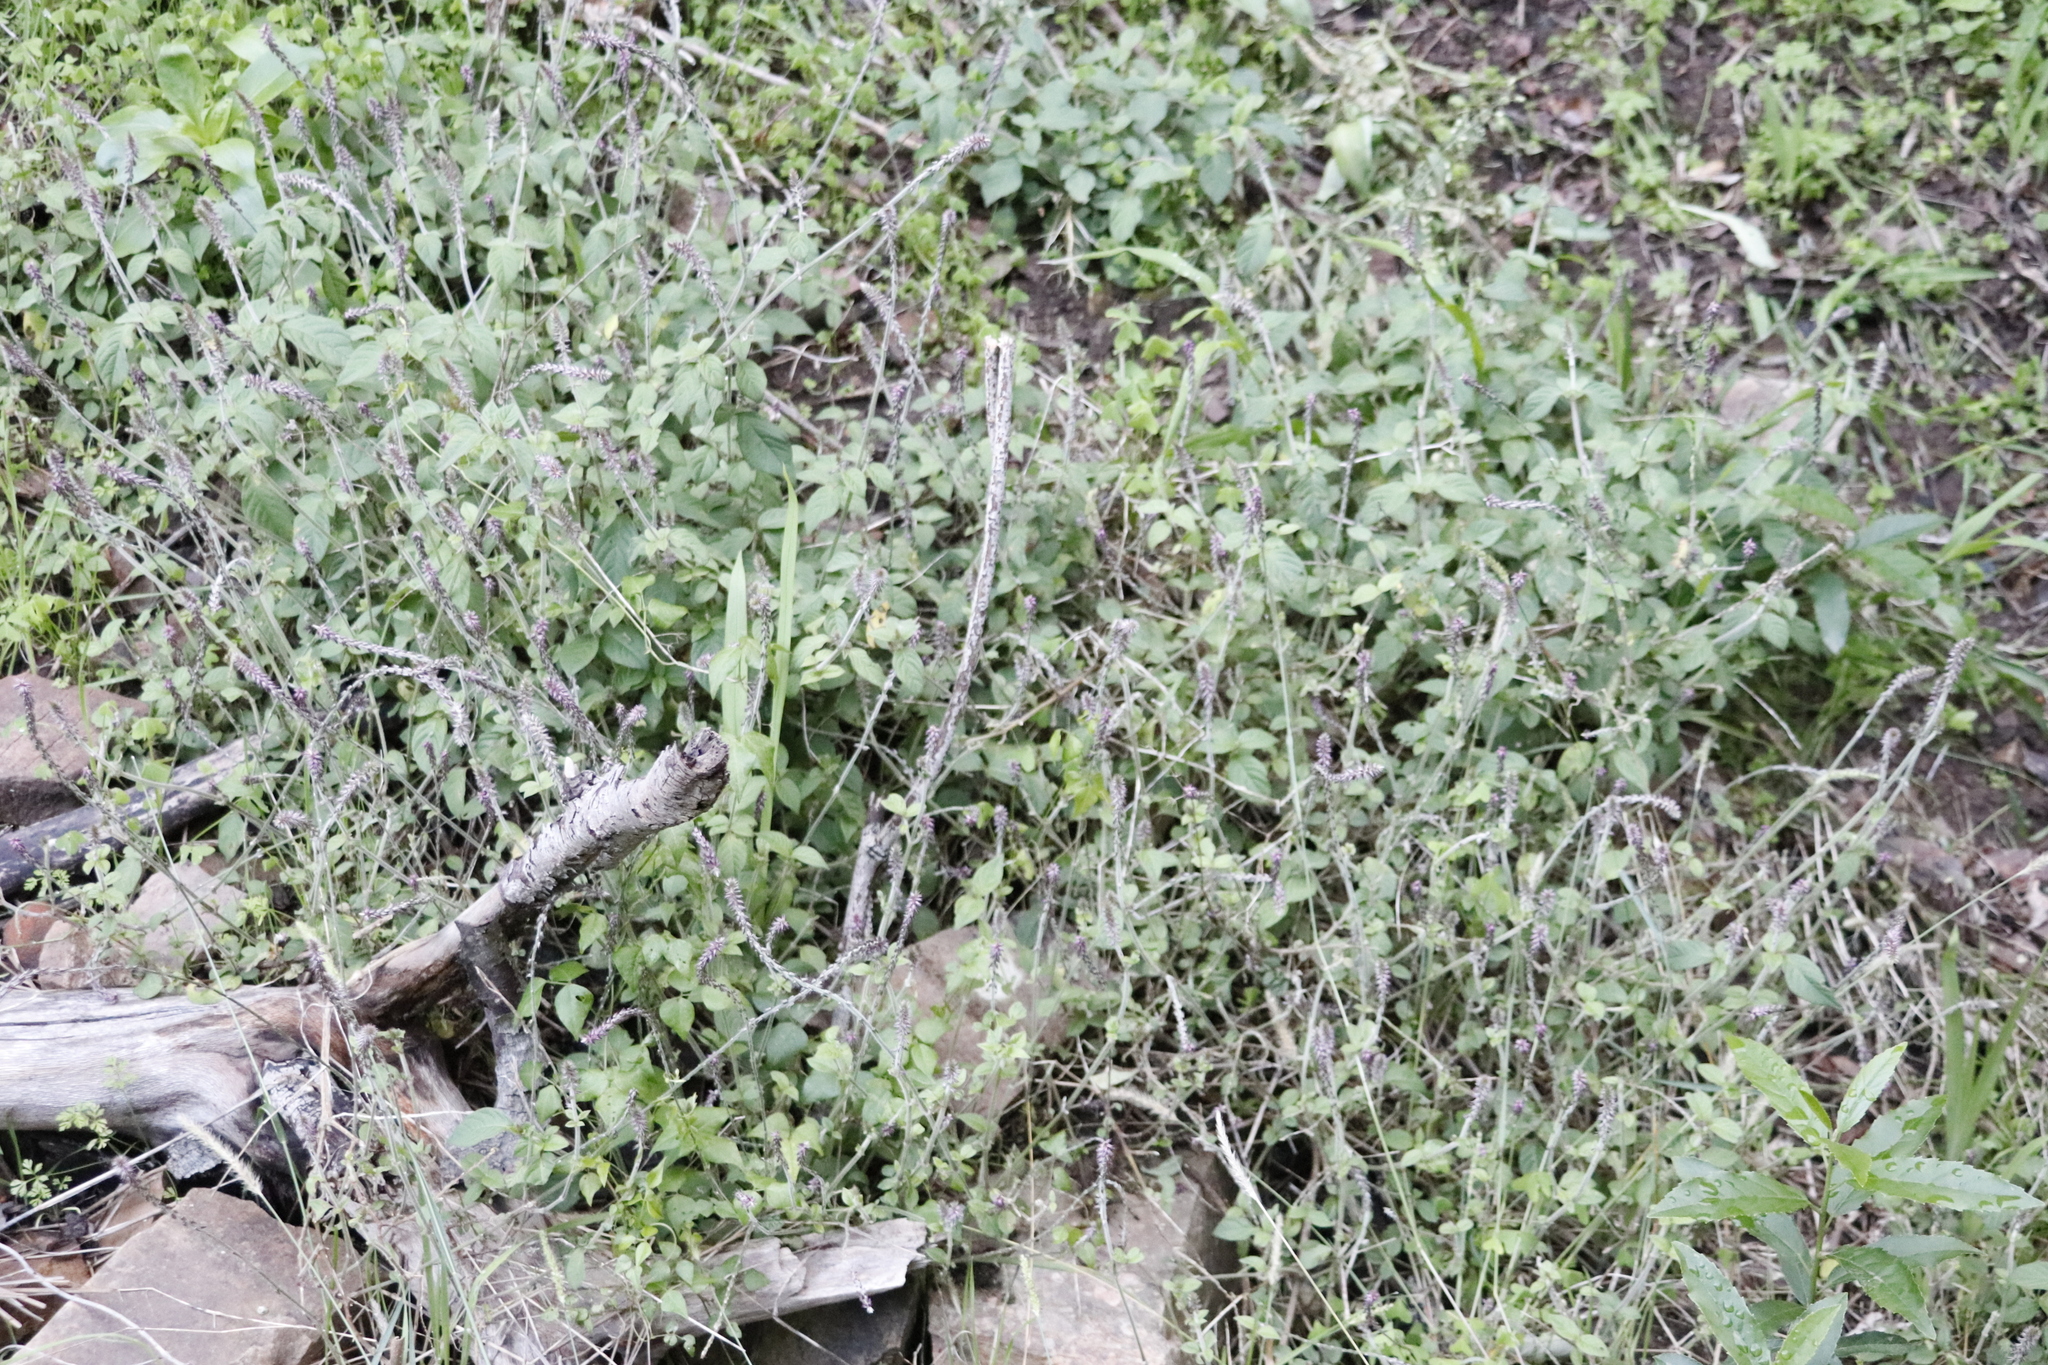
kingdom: Plantae
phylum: Tracheophyta
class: Magnoliopsida
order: Caryophyllales
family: Amaranthaceae
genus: Achyranthes
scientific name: Achyranthes aspera
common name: Devil's horsewhip
